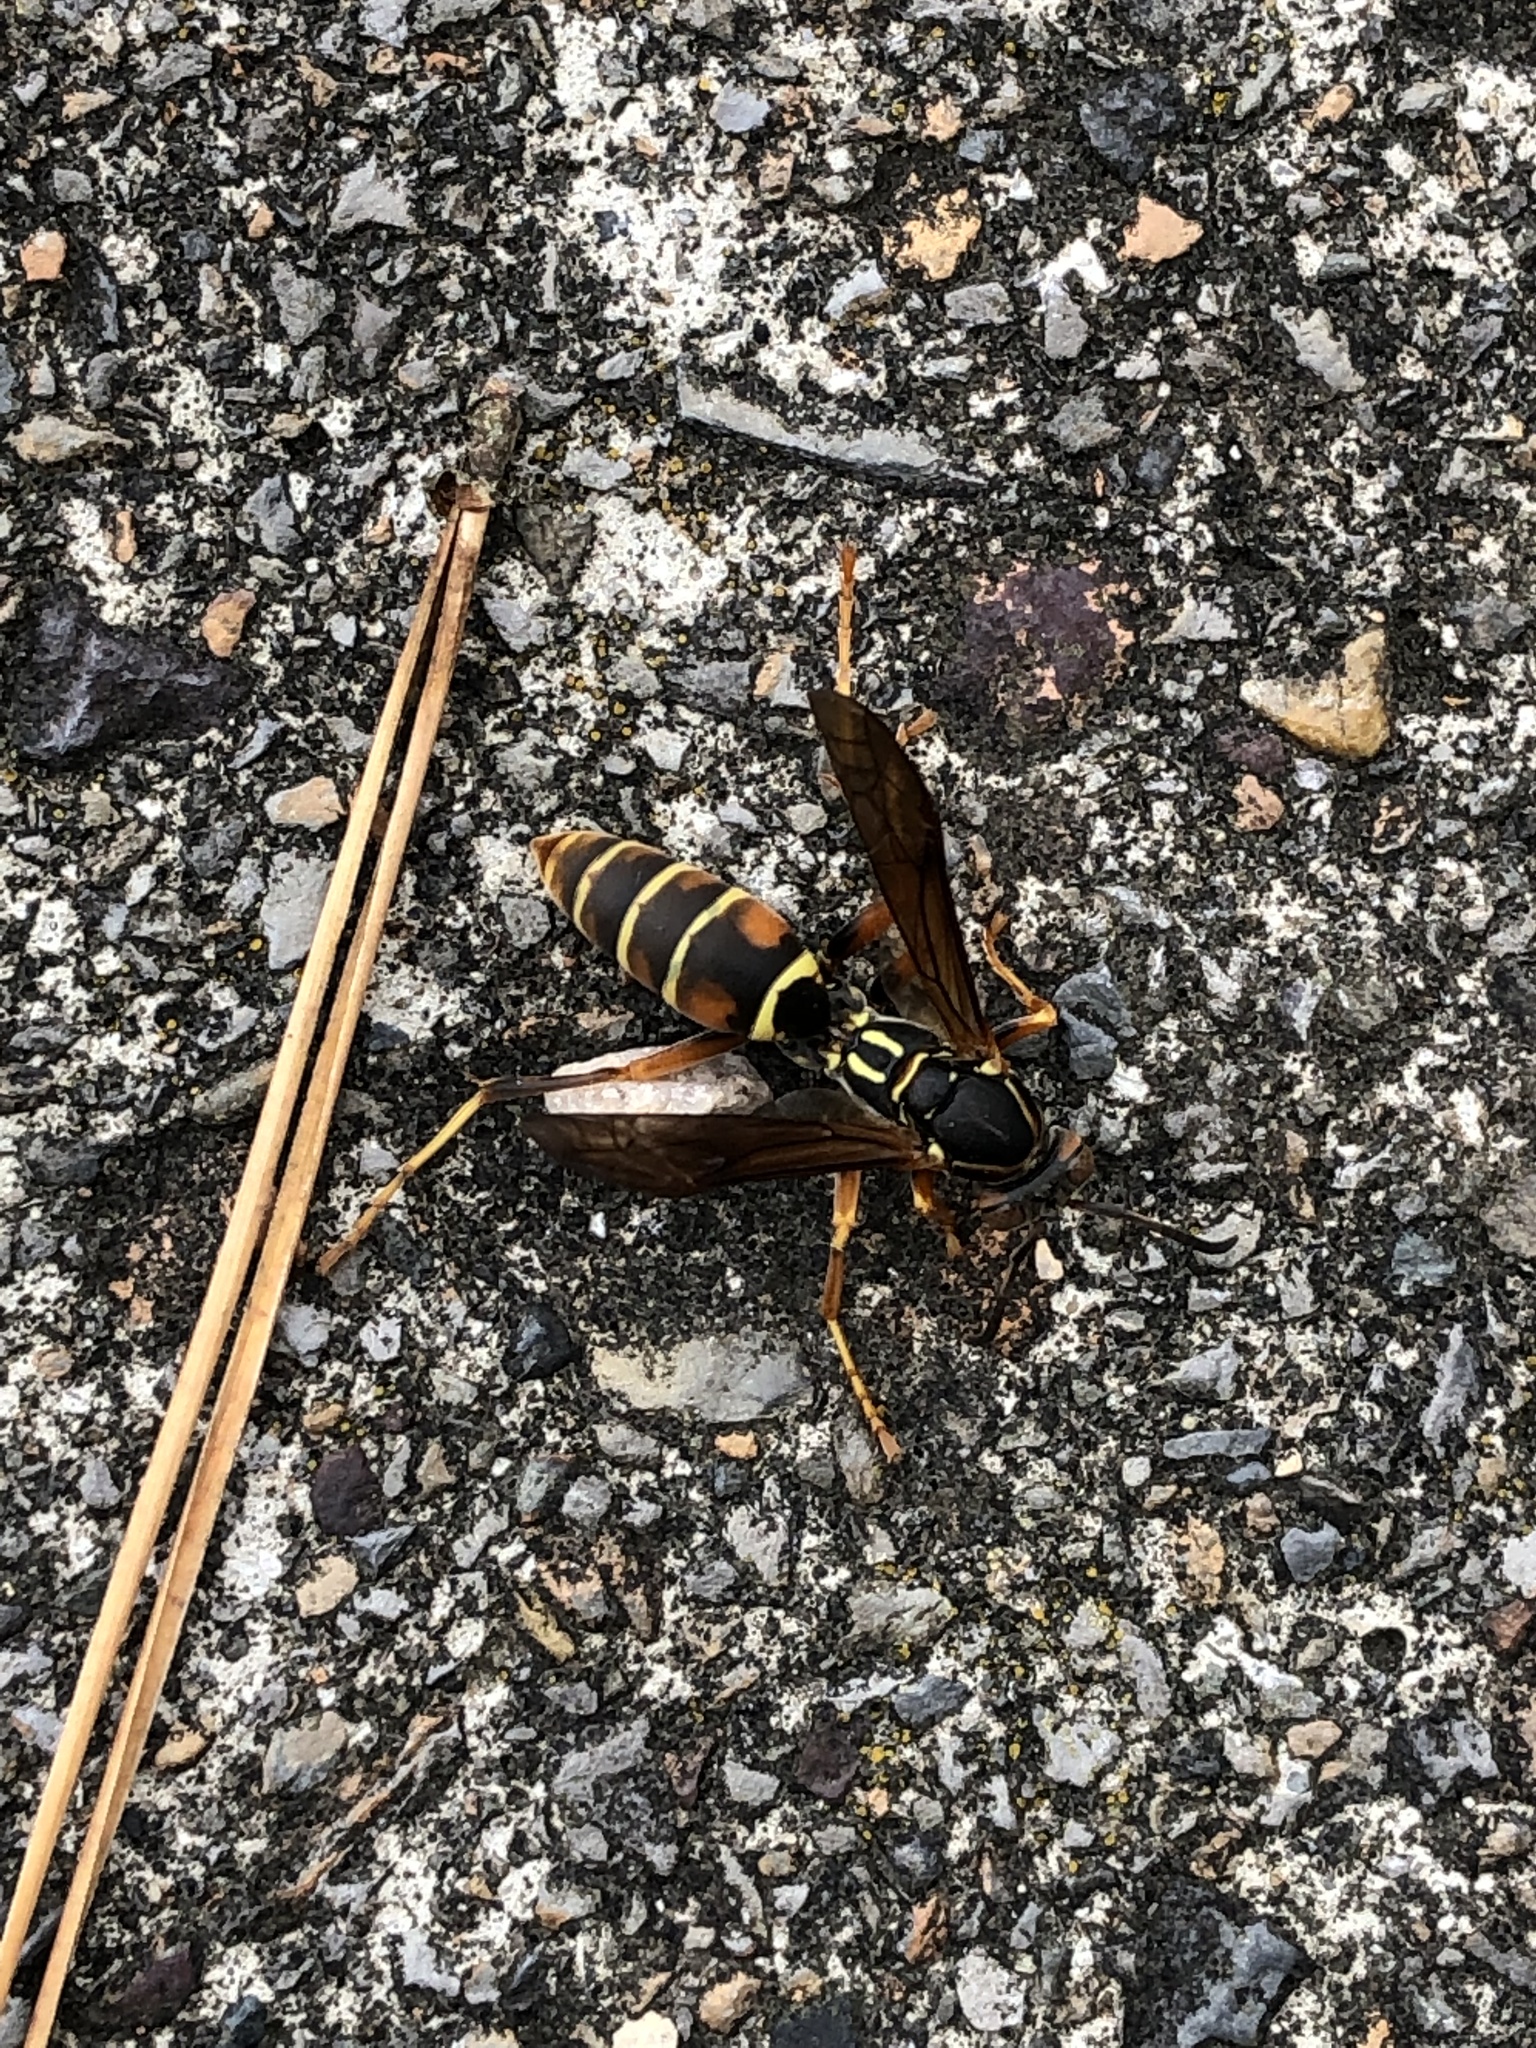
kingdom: Animalia
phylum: Arthropoda
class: Insecta
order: Hymenoptera
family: Eumenidae
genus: Polistes
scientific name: Polistes fuscatus
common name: Dark paper wasp
